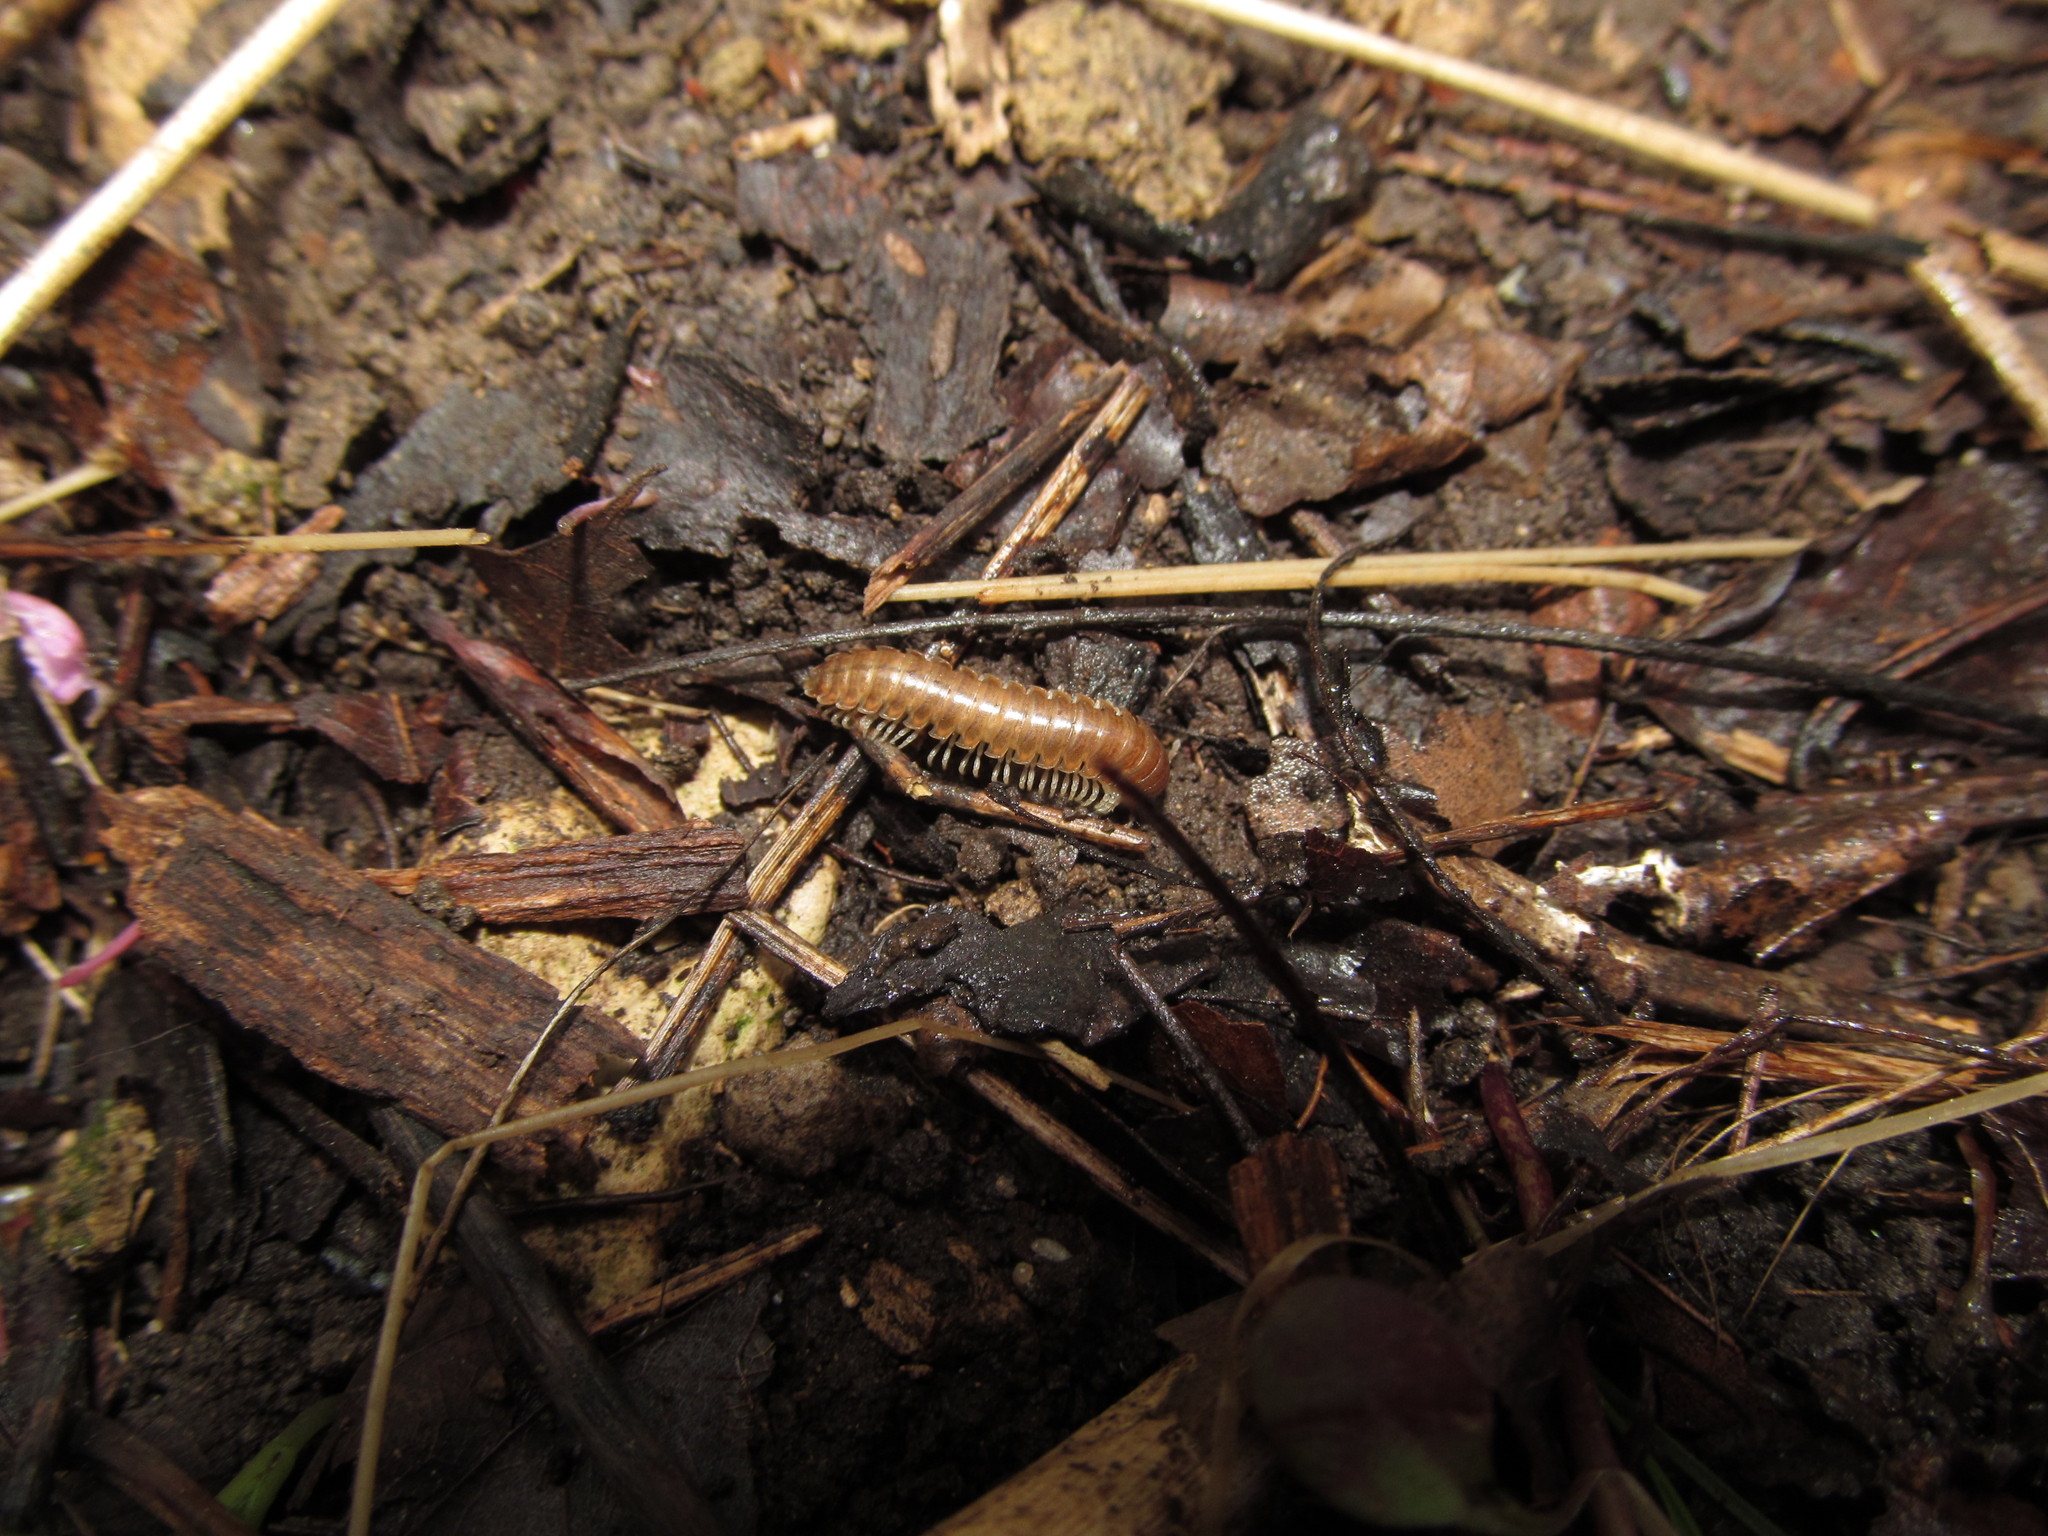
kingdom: Animalia
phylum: Arthropoda
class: Diplopoda
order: Polydesmida
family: Xystodesmidae
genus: Gyalostethus
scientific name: Gyalostethus monticolens
